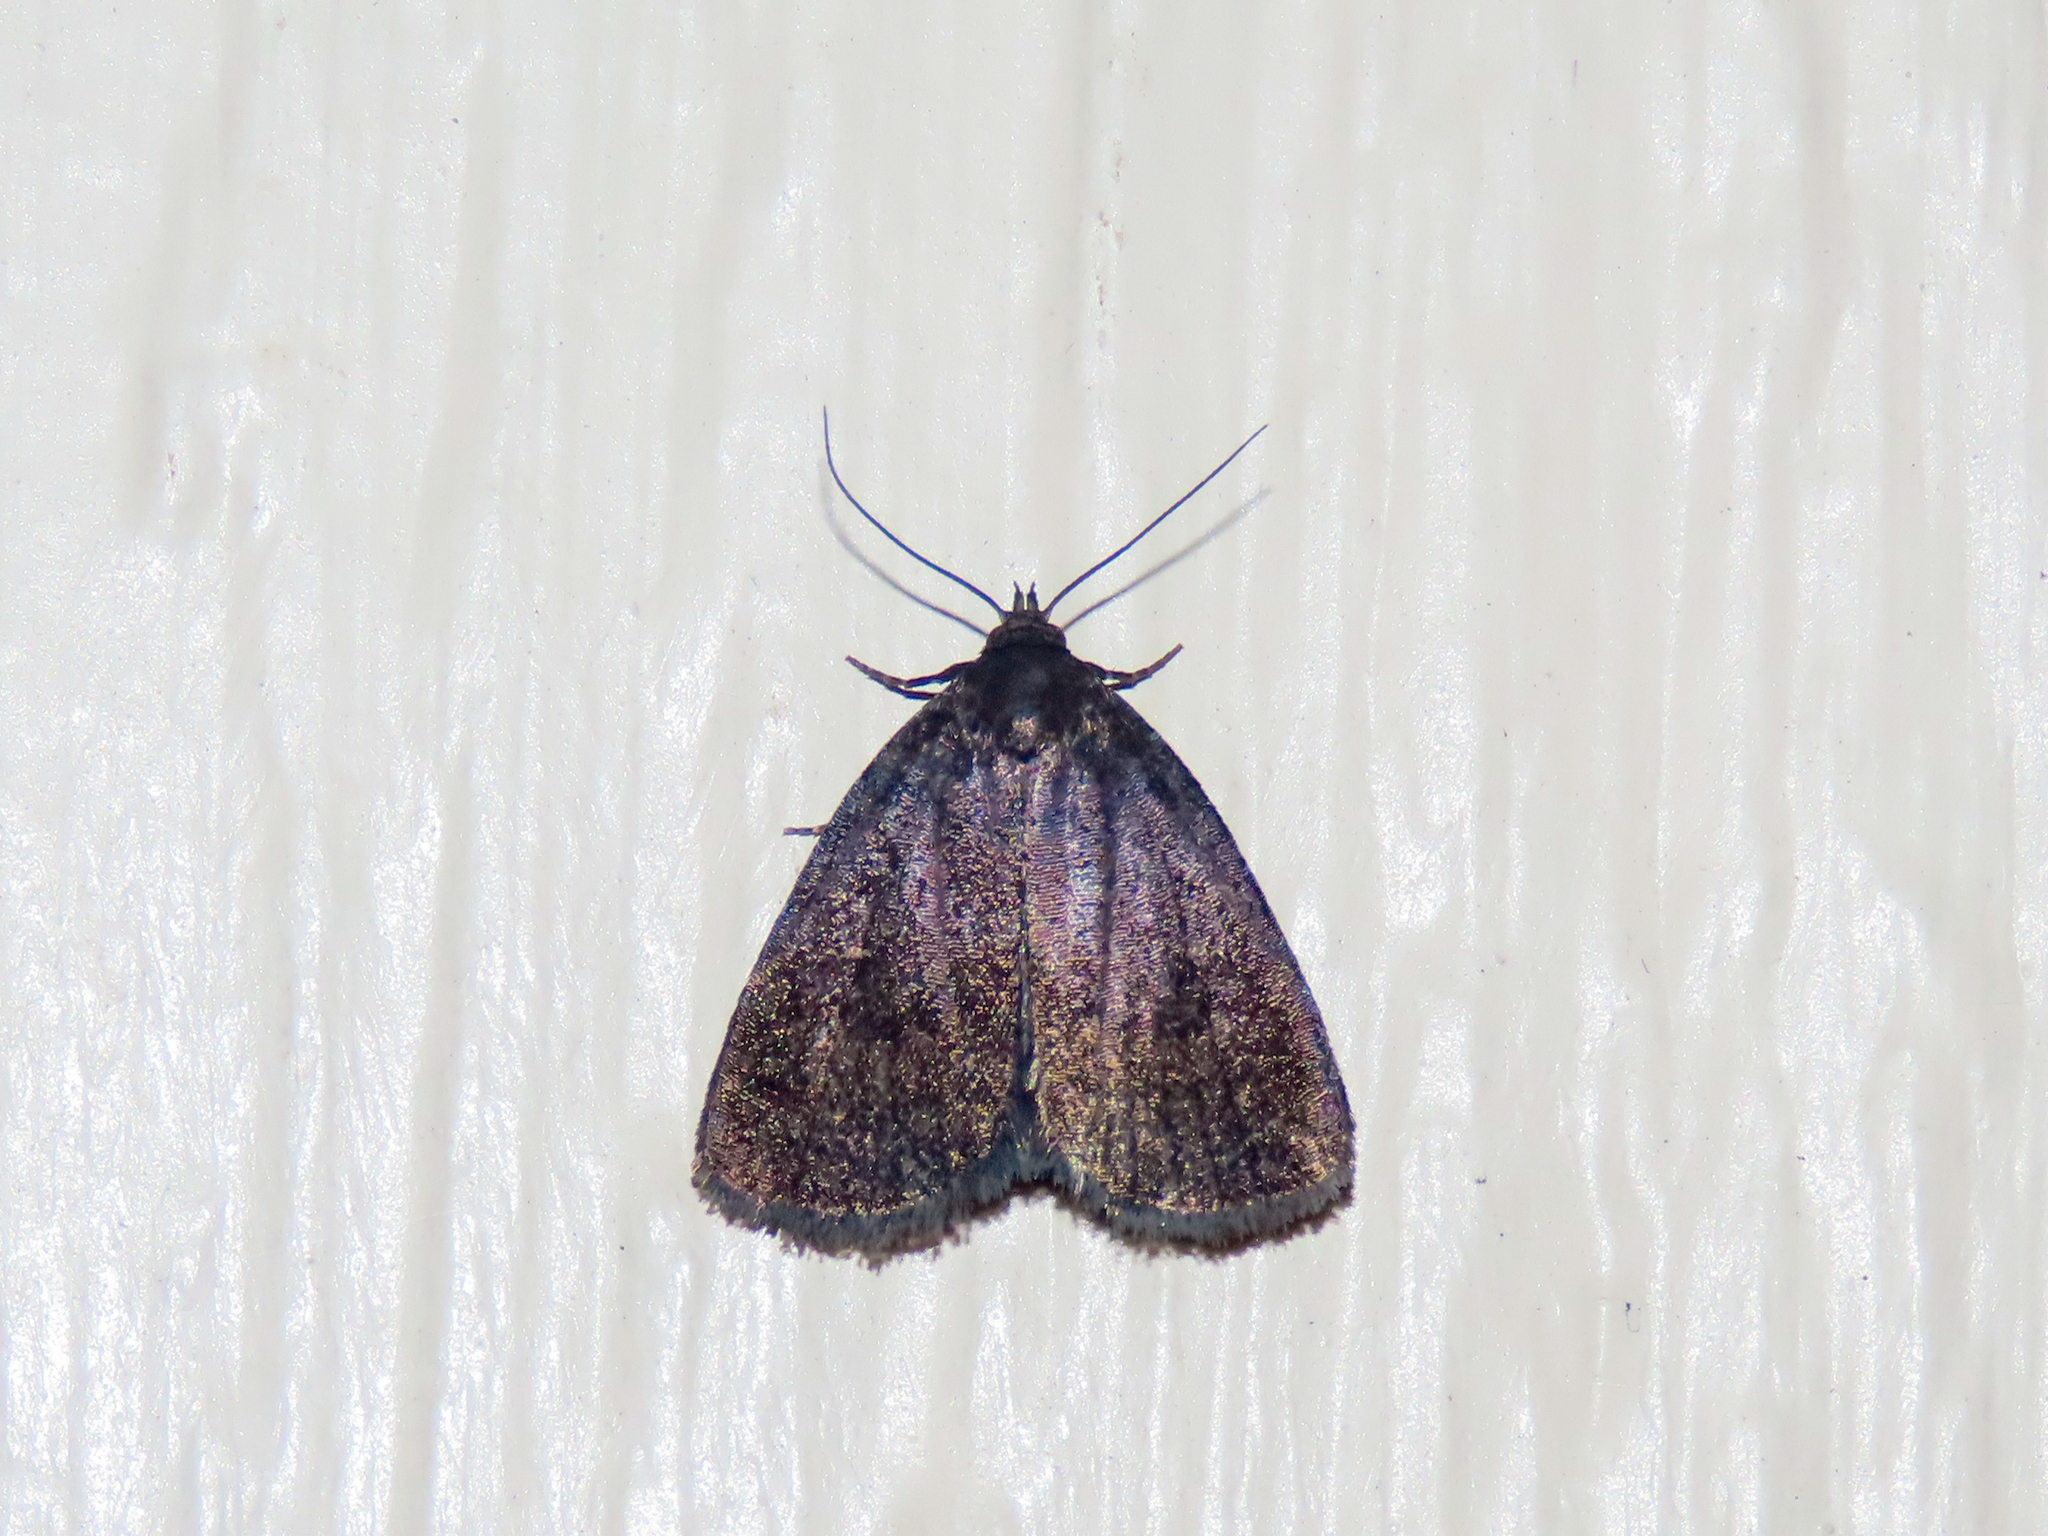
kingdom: Animalia
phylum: Arthropoda
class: Insecta
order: Lepidoptera
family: Erebidae
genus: Idia
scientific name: Idia rotundalis
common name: Rotund idia moth
